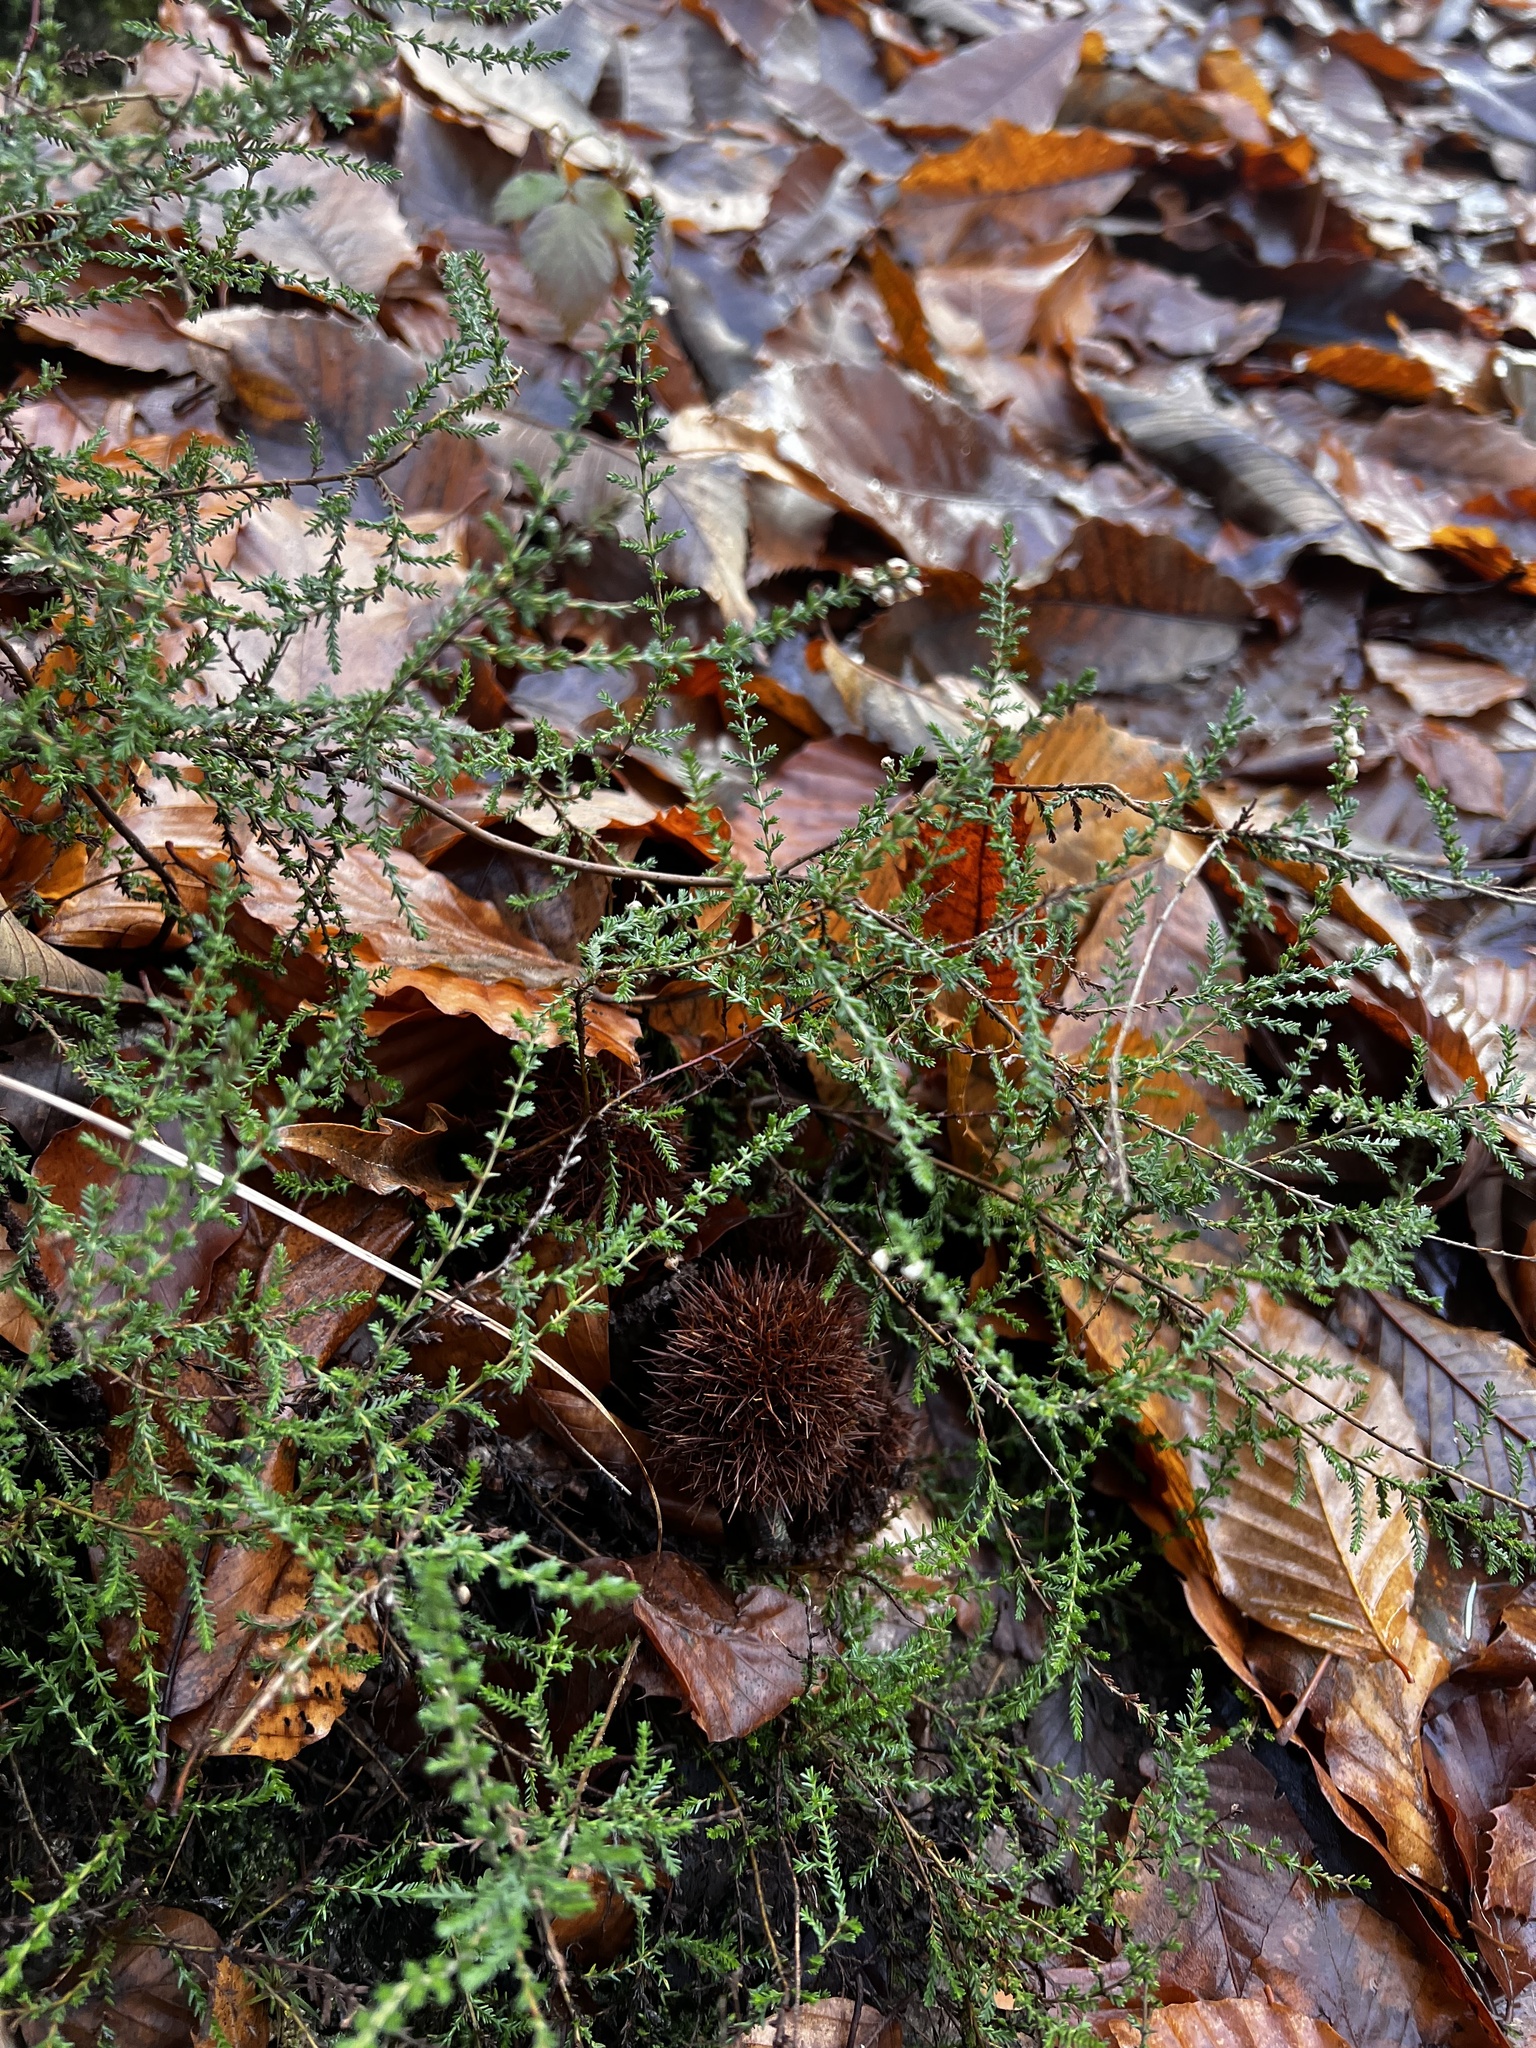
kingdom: Plantae
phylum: Tracheophyta
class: Magnoliopsida
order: Ericales
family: Ericaceae
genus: Calluna
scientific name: Calluna vulgaris
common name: Heather
